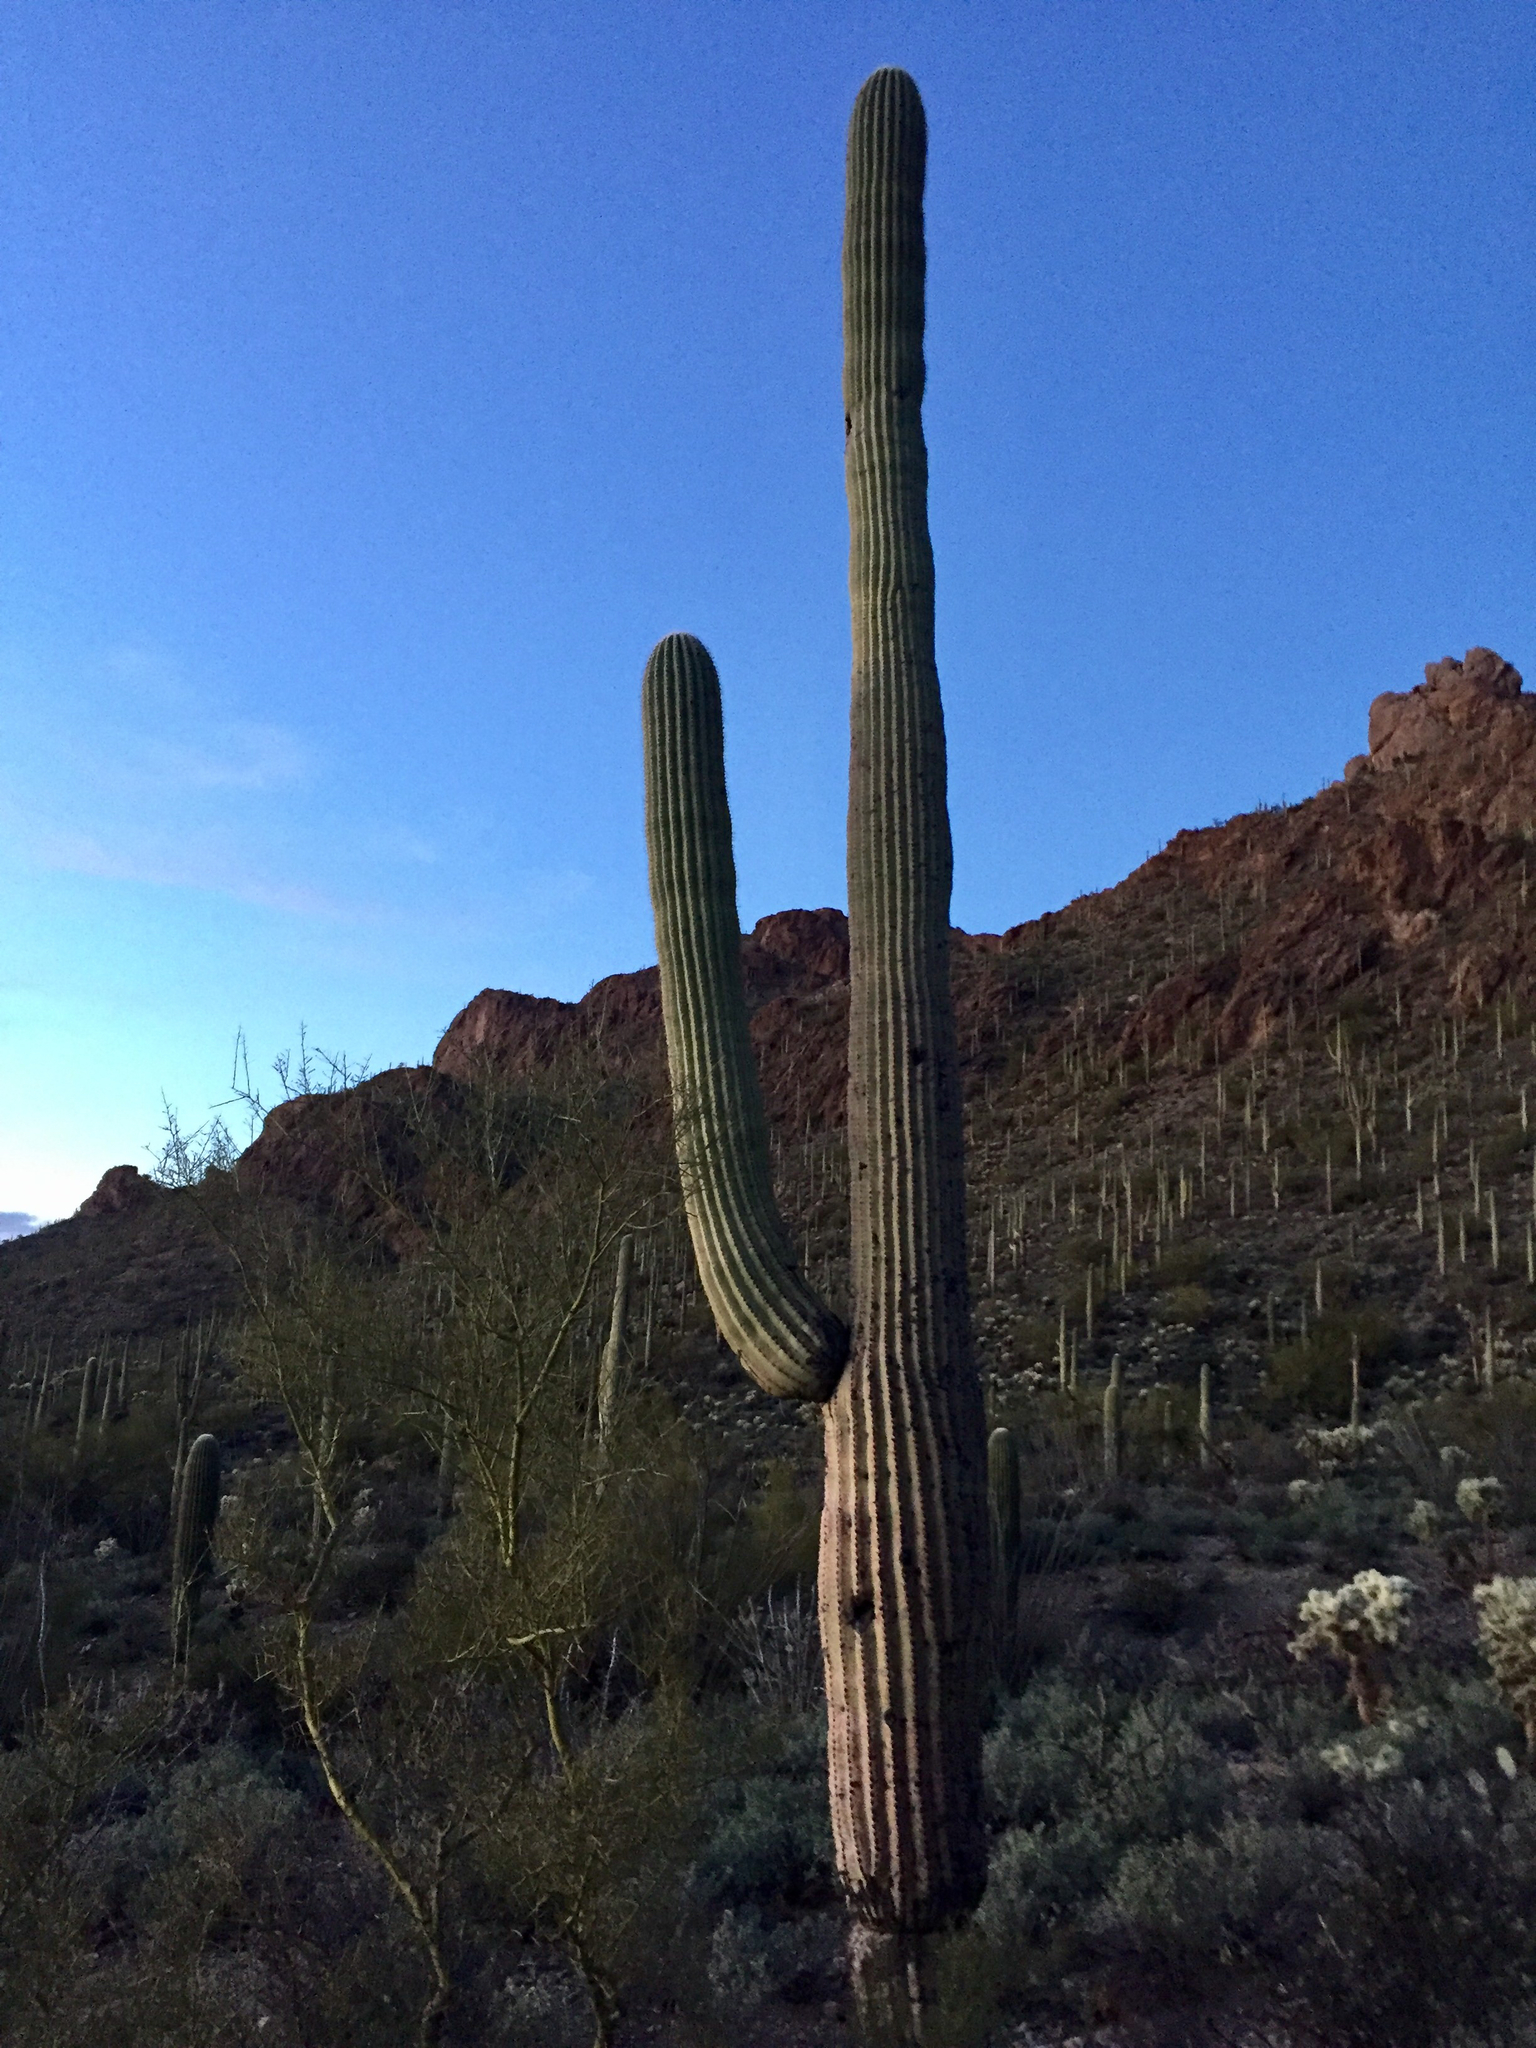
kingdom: Plantae
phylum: Tracheophyta
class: Magnoliopsida
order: Caryophyllales
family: Cactaceae
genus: Carnegiea
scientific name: Carnegiea gigantea
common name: Saguaro
